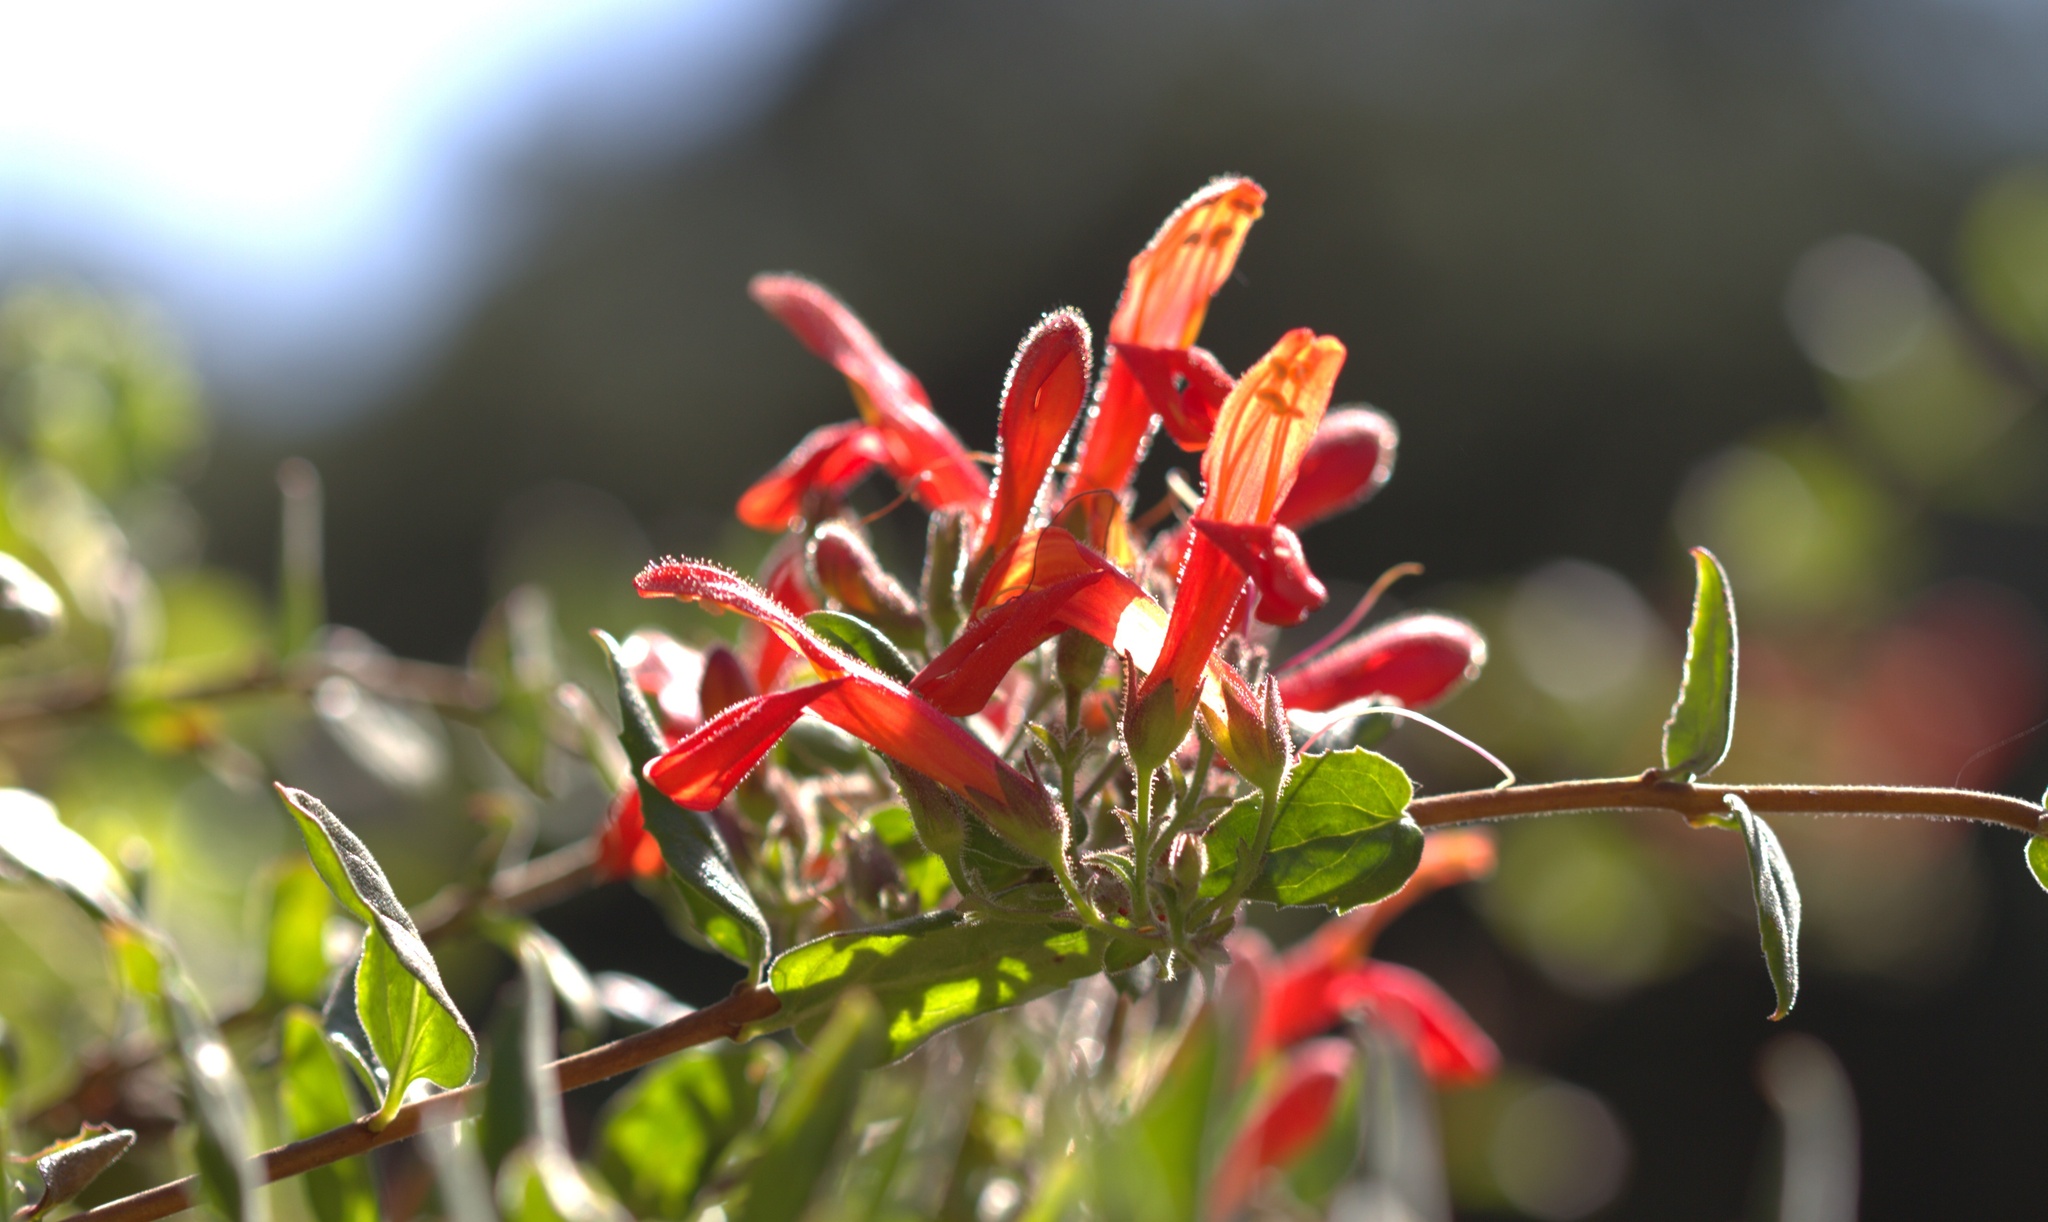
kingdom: Plantae
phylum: Tracheophyta
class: Magnoliopsida
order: Lamiales
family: Plantaginaceae
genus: Keckiella
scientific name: Keckiella cordifolia
